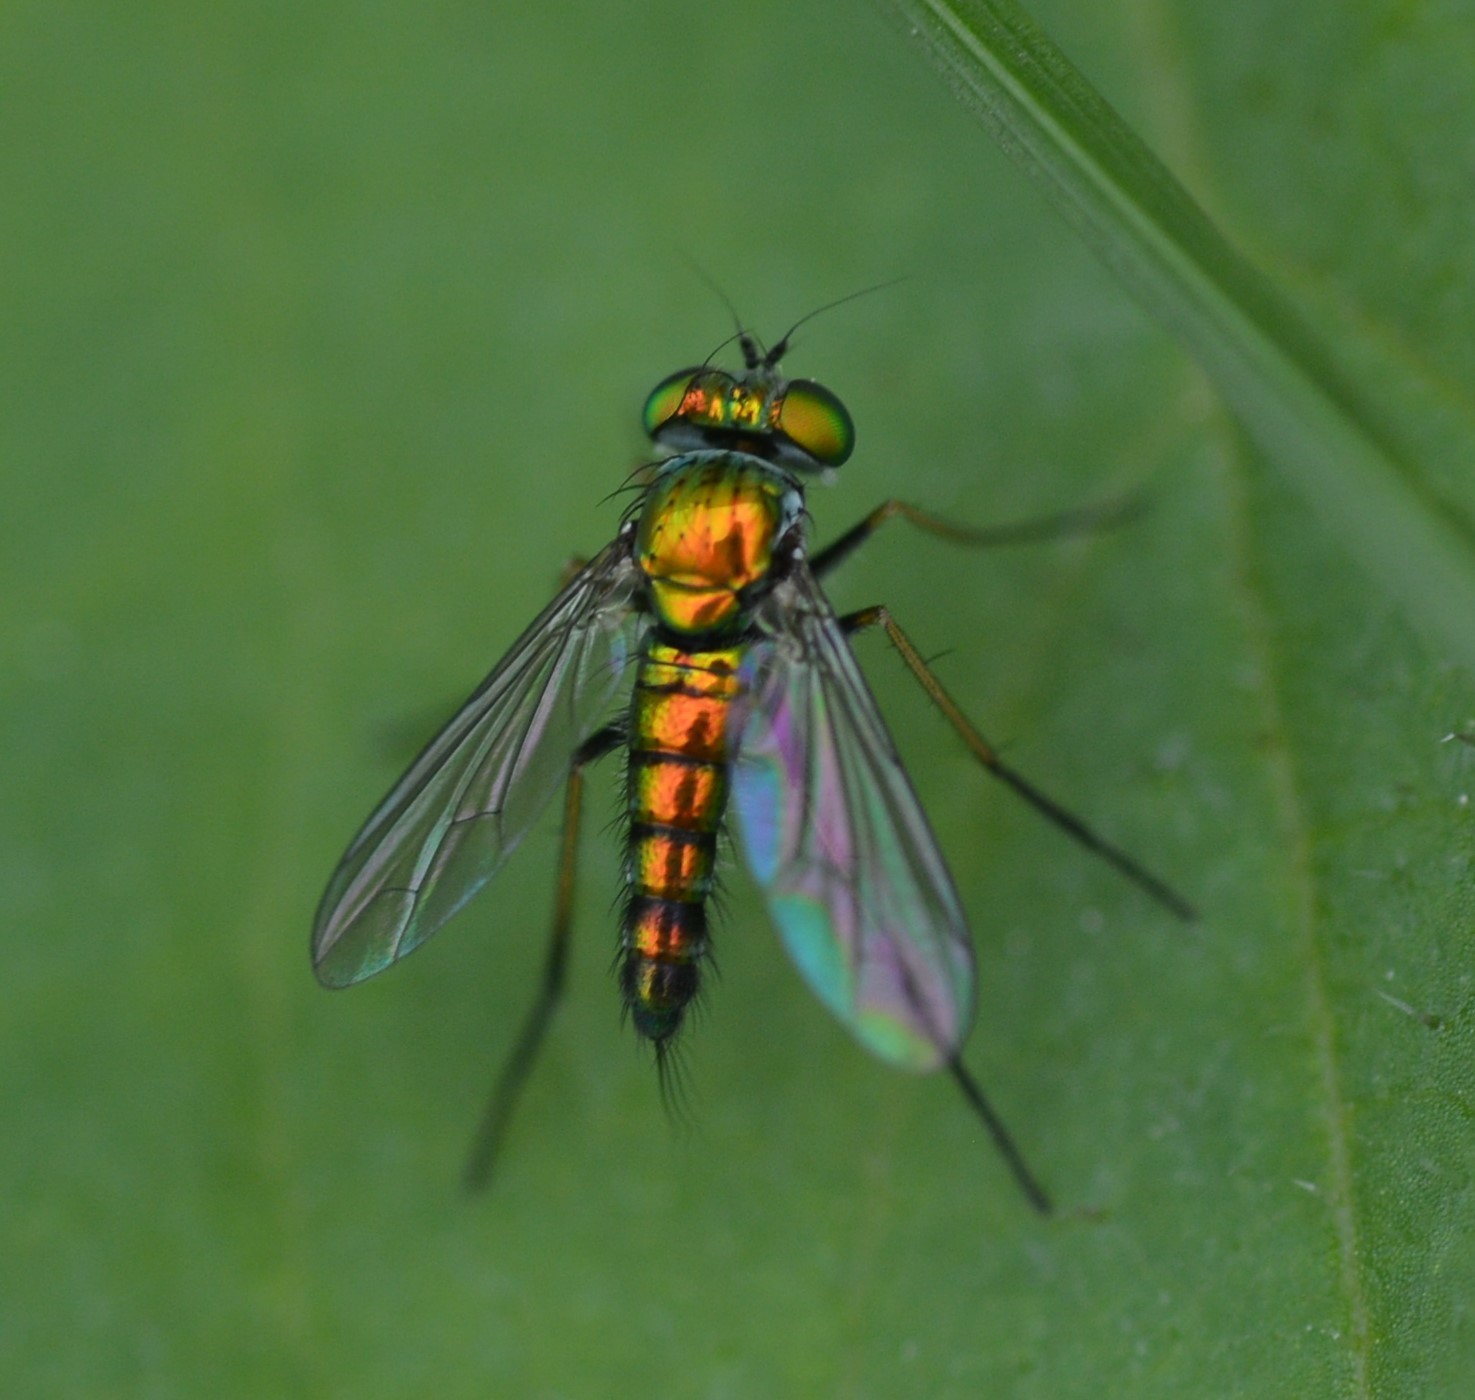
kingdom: Animalia
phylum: Arthropoda
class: Insecta
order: Diptera
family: Dolichopodidae
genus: Condylostylus
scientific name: Condylostylus caudatus
